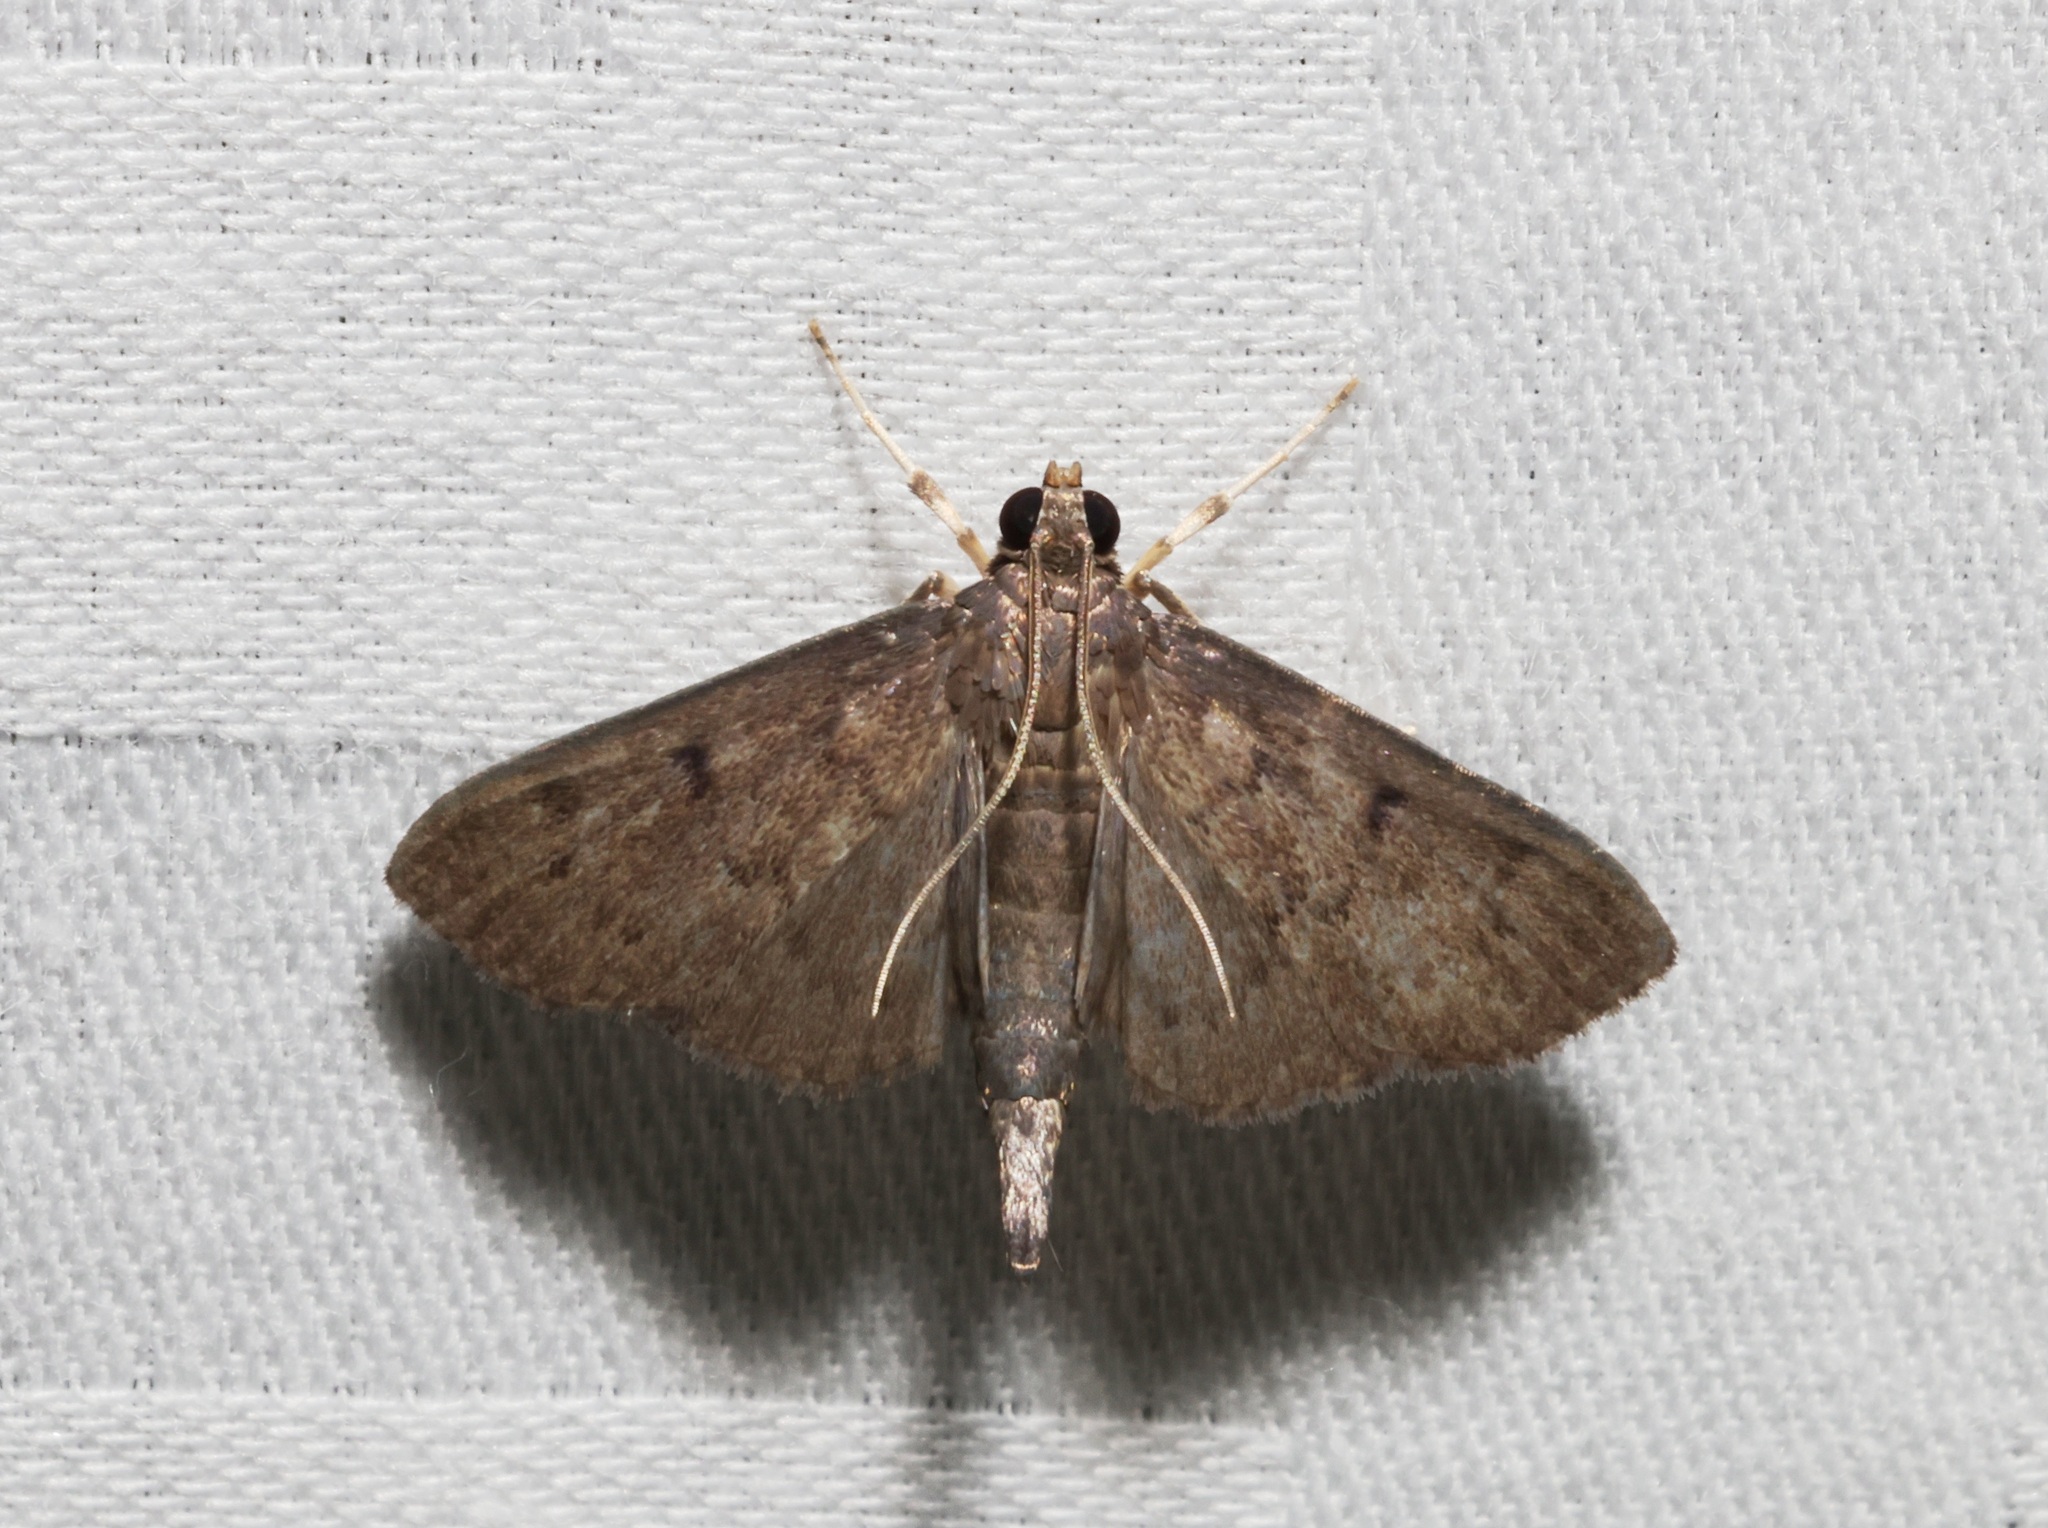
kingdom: Animalia
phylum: Arthropoda
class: Insecta
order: Lepidoptera
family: Crambidae
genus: Lamprosema
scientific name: Lamprosema tristrialis
